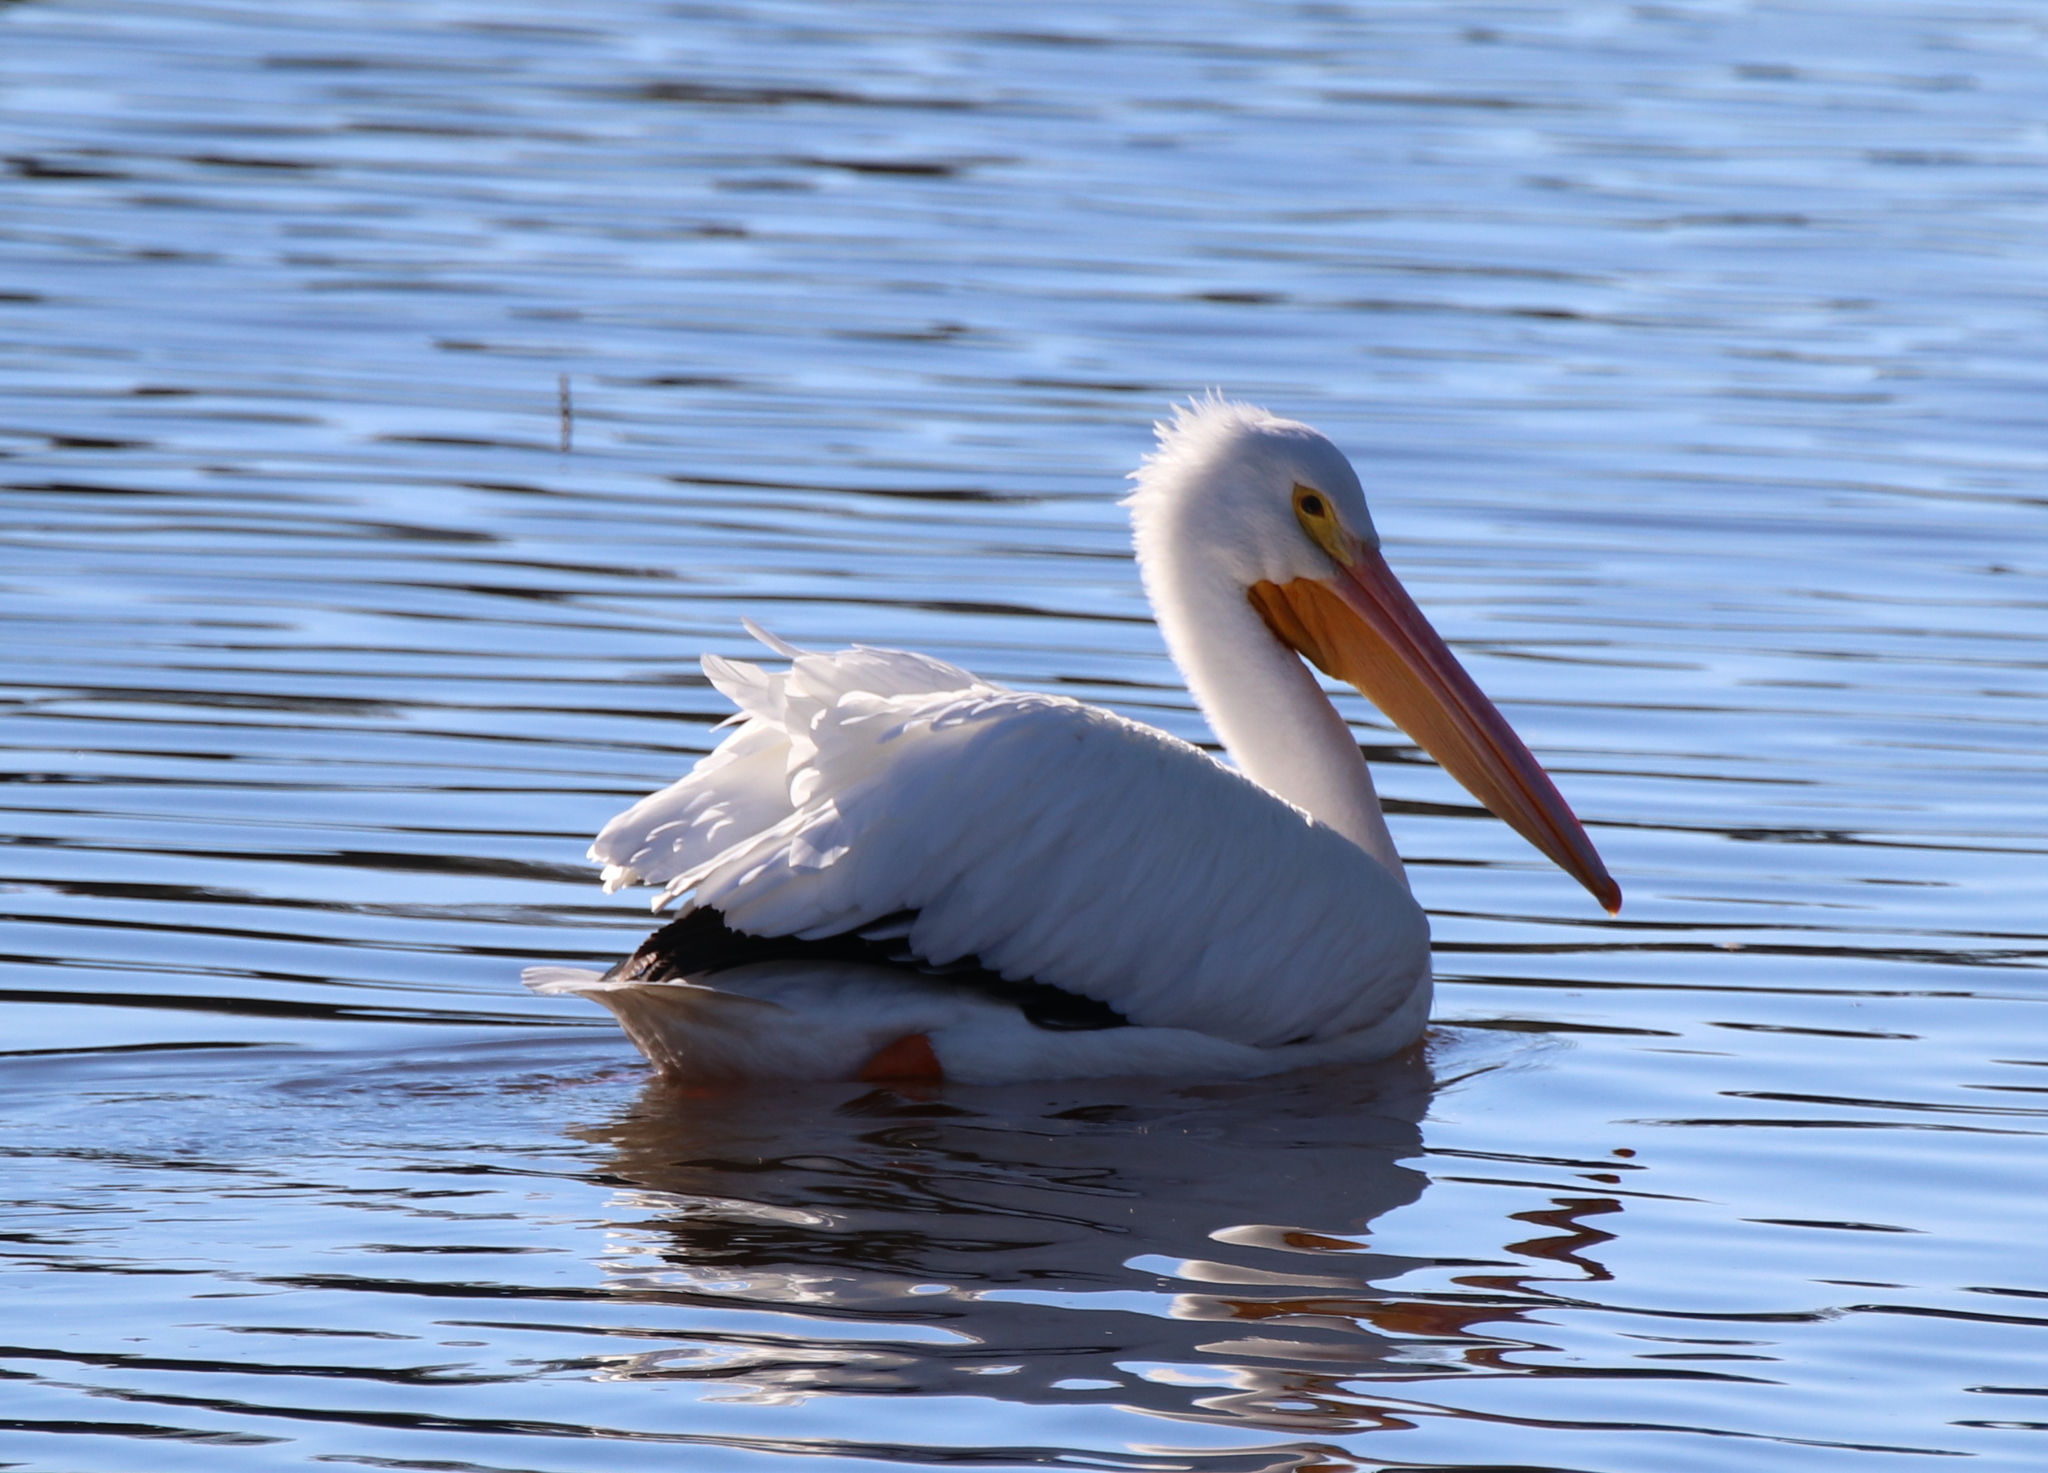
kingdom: Animalia
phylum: Chordata
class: Aves
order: Pelecaniformes
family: Pelecanidae
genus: Pelecanus
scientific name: Pelecanus erythrorhynchos
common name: American white pelican
